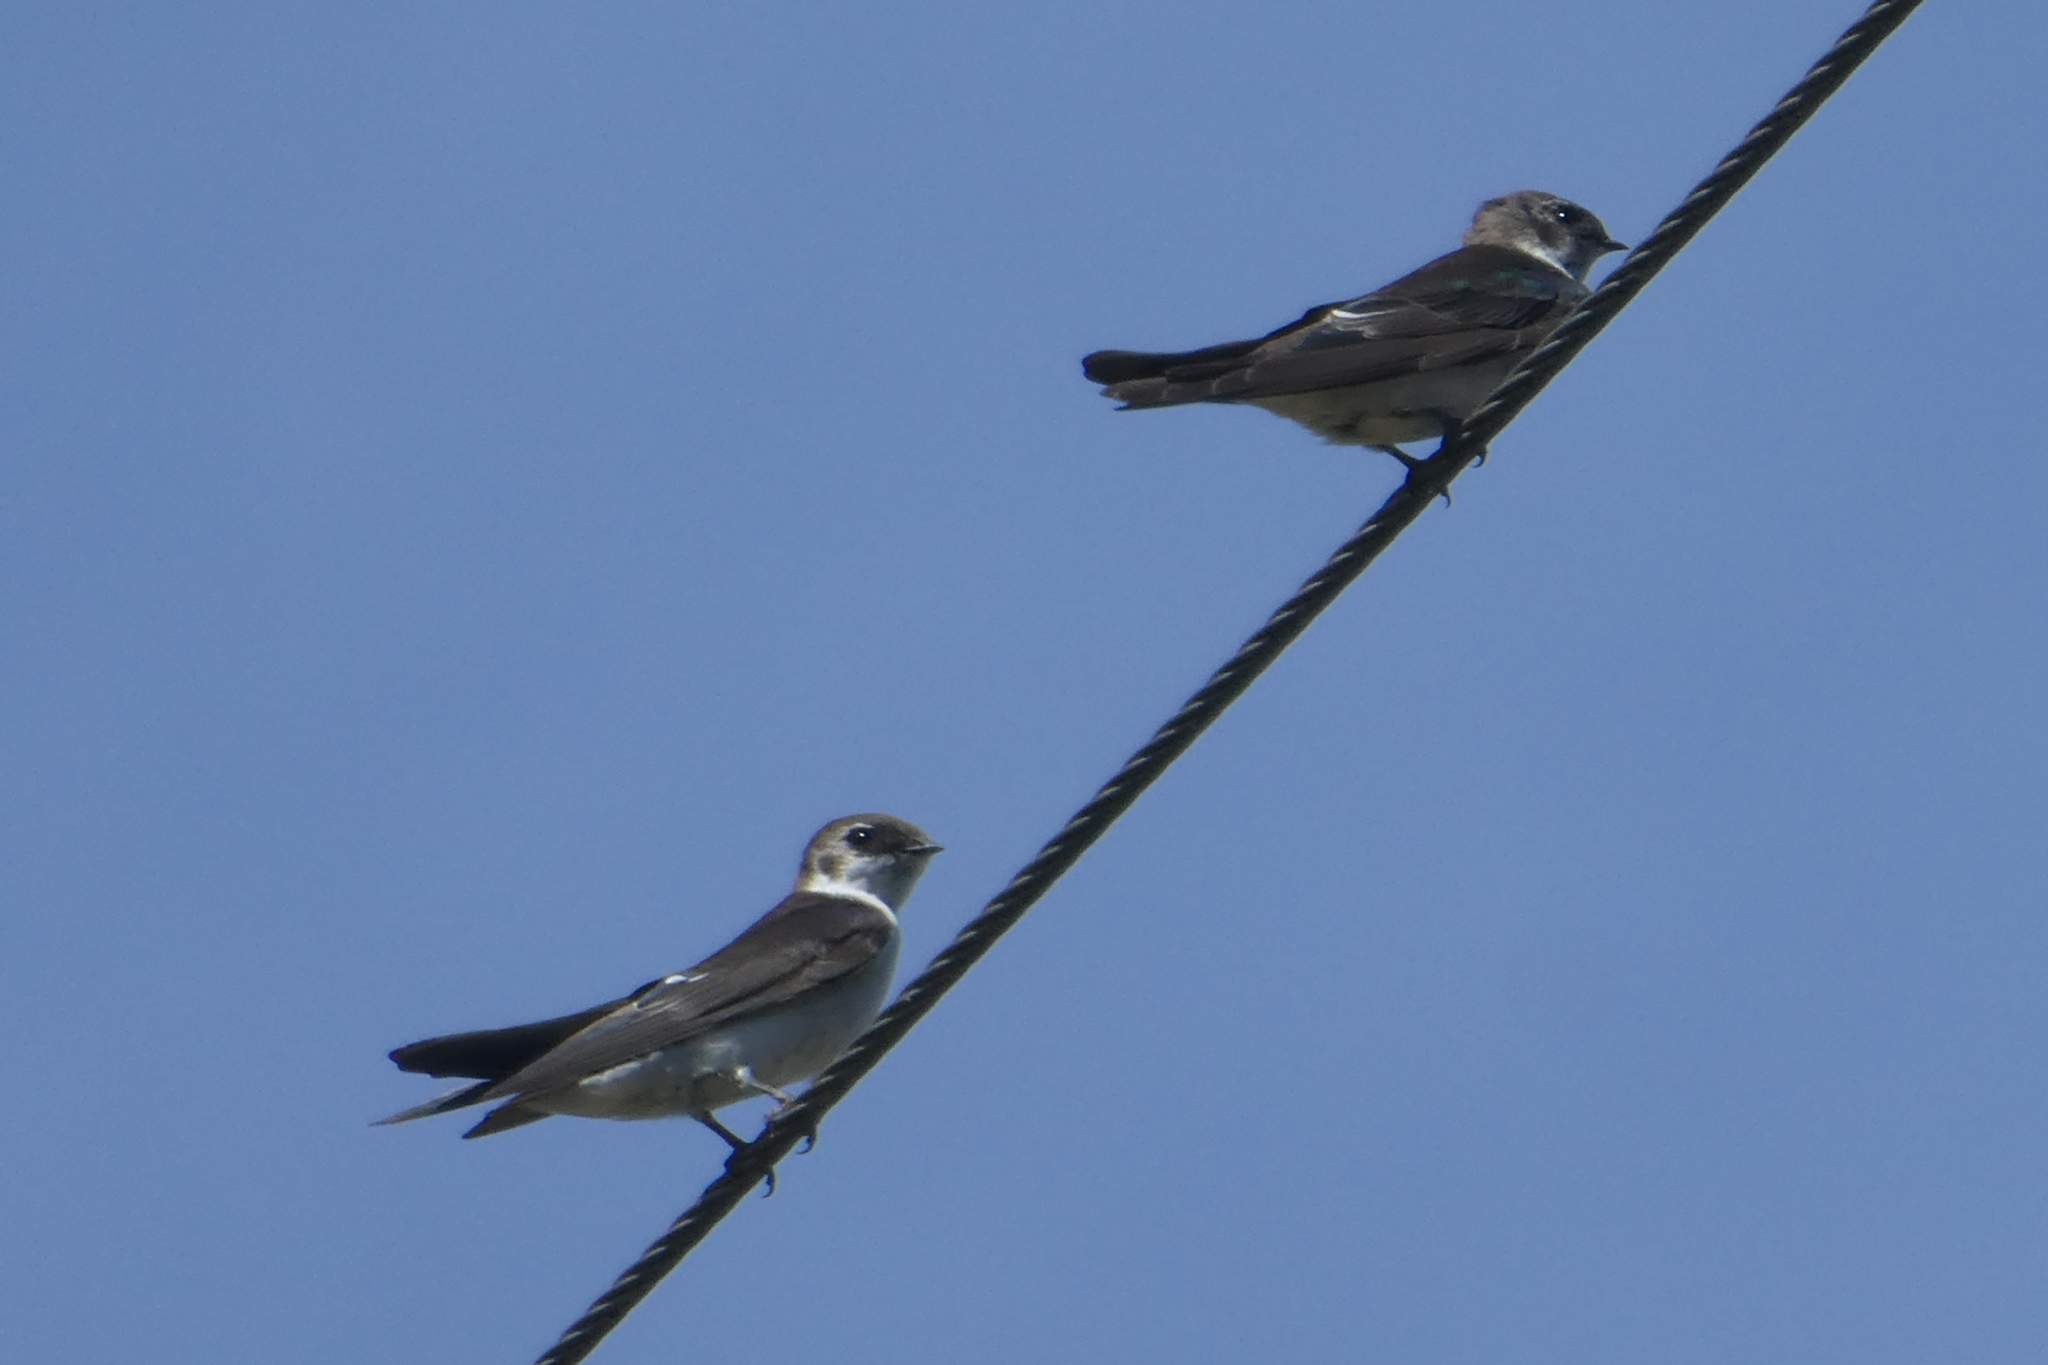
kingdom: Animalia
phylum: Chordata
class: Aves
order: Passeriformes
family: Hirundinidae
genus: Tachycineta
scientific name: Tachycineta thalassina
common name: Violet-green swallow
